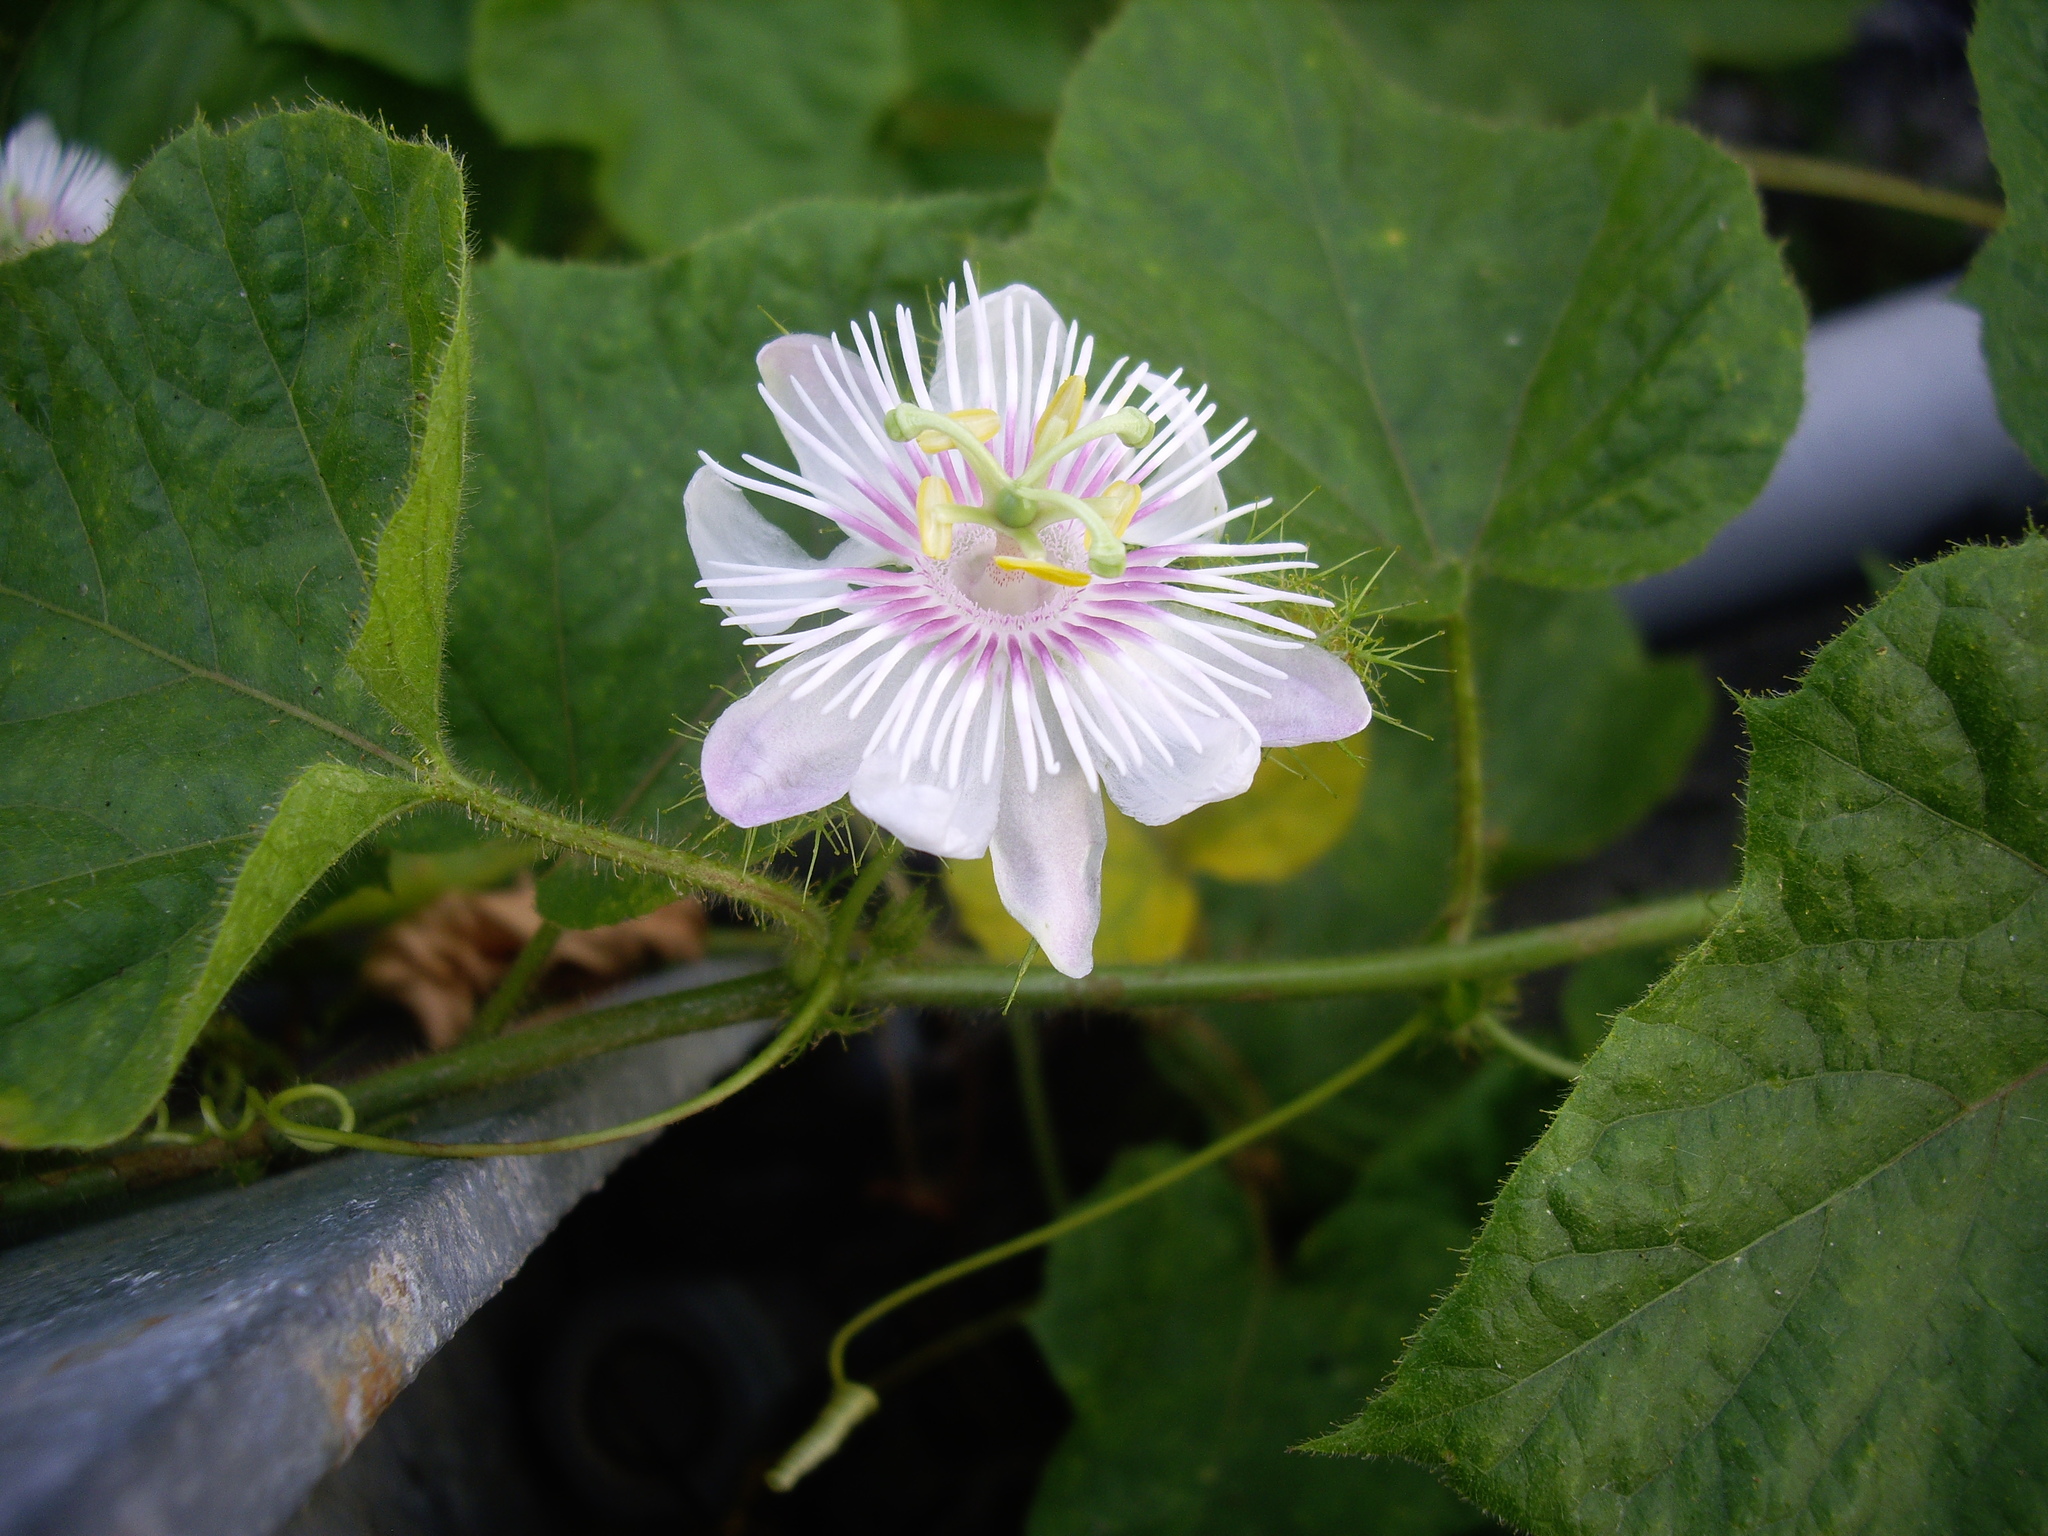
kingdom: Plantae
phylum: Tracheophyta
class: Magnoliopsida
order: Malpighiales
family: Passifloraceae
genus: Passiflora
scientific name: Passiflora vesicaria
